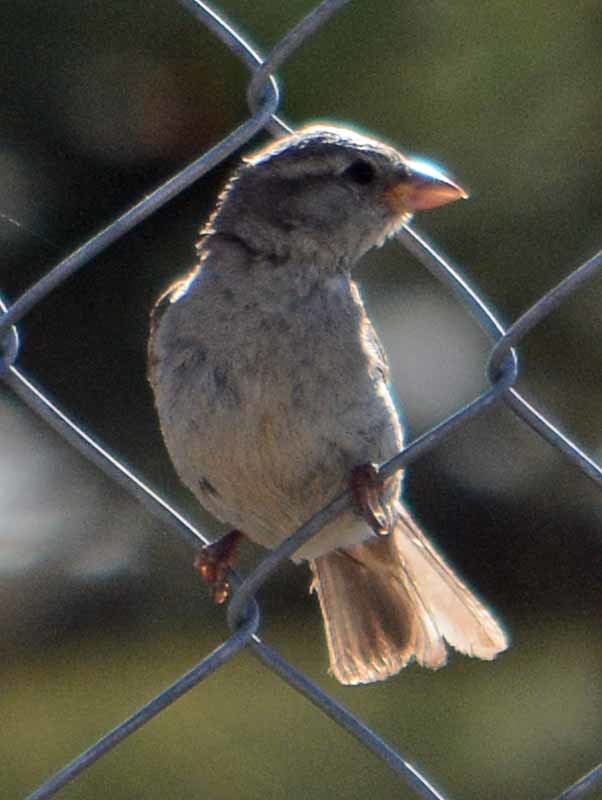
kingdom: Animalia
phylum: Chordata
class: Aves
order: Passeriformes
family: Passeridae
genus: Passer
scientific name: Passer domesticus
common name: House sparrow
